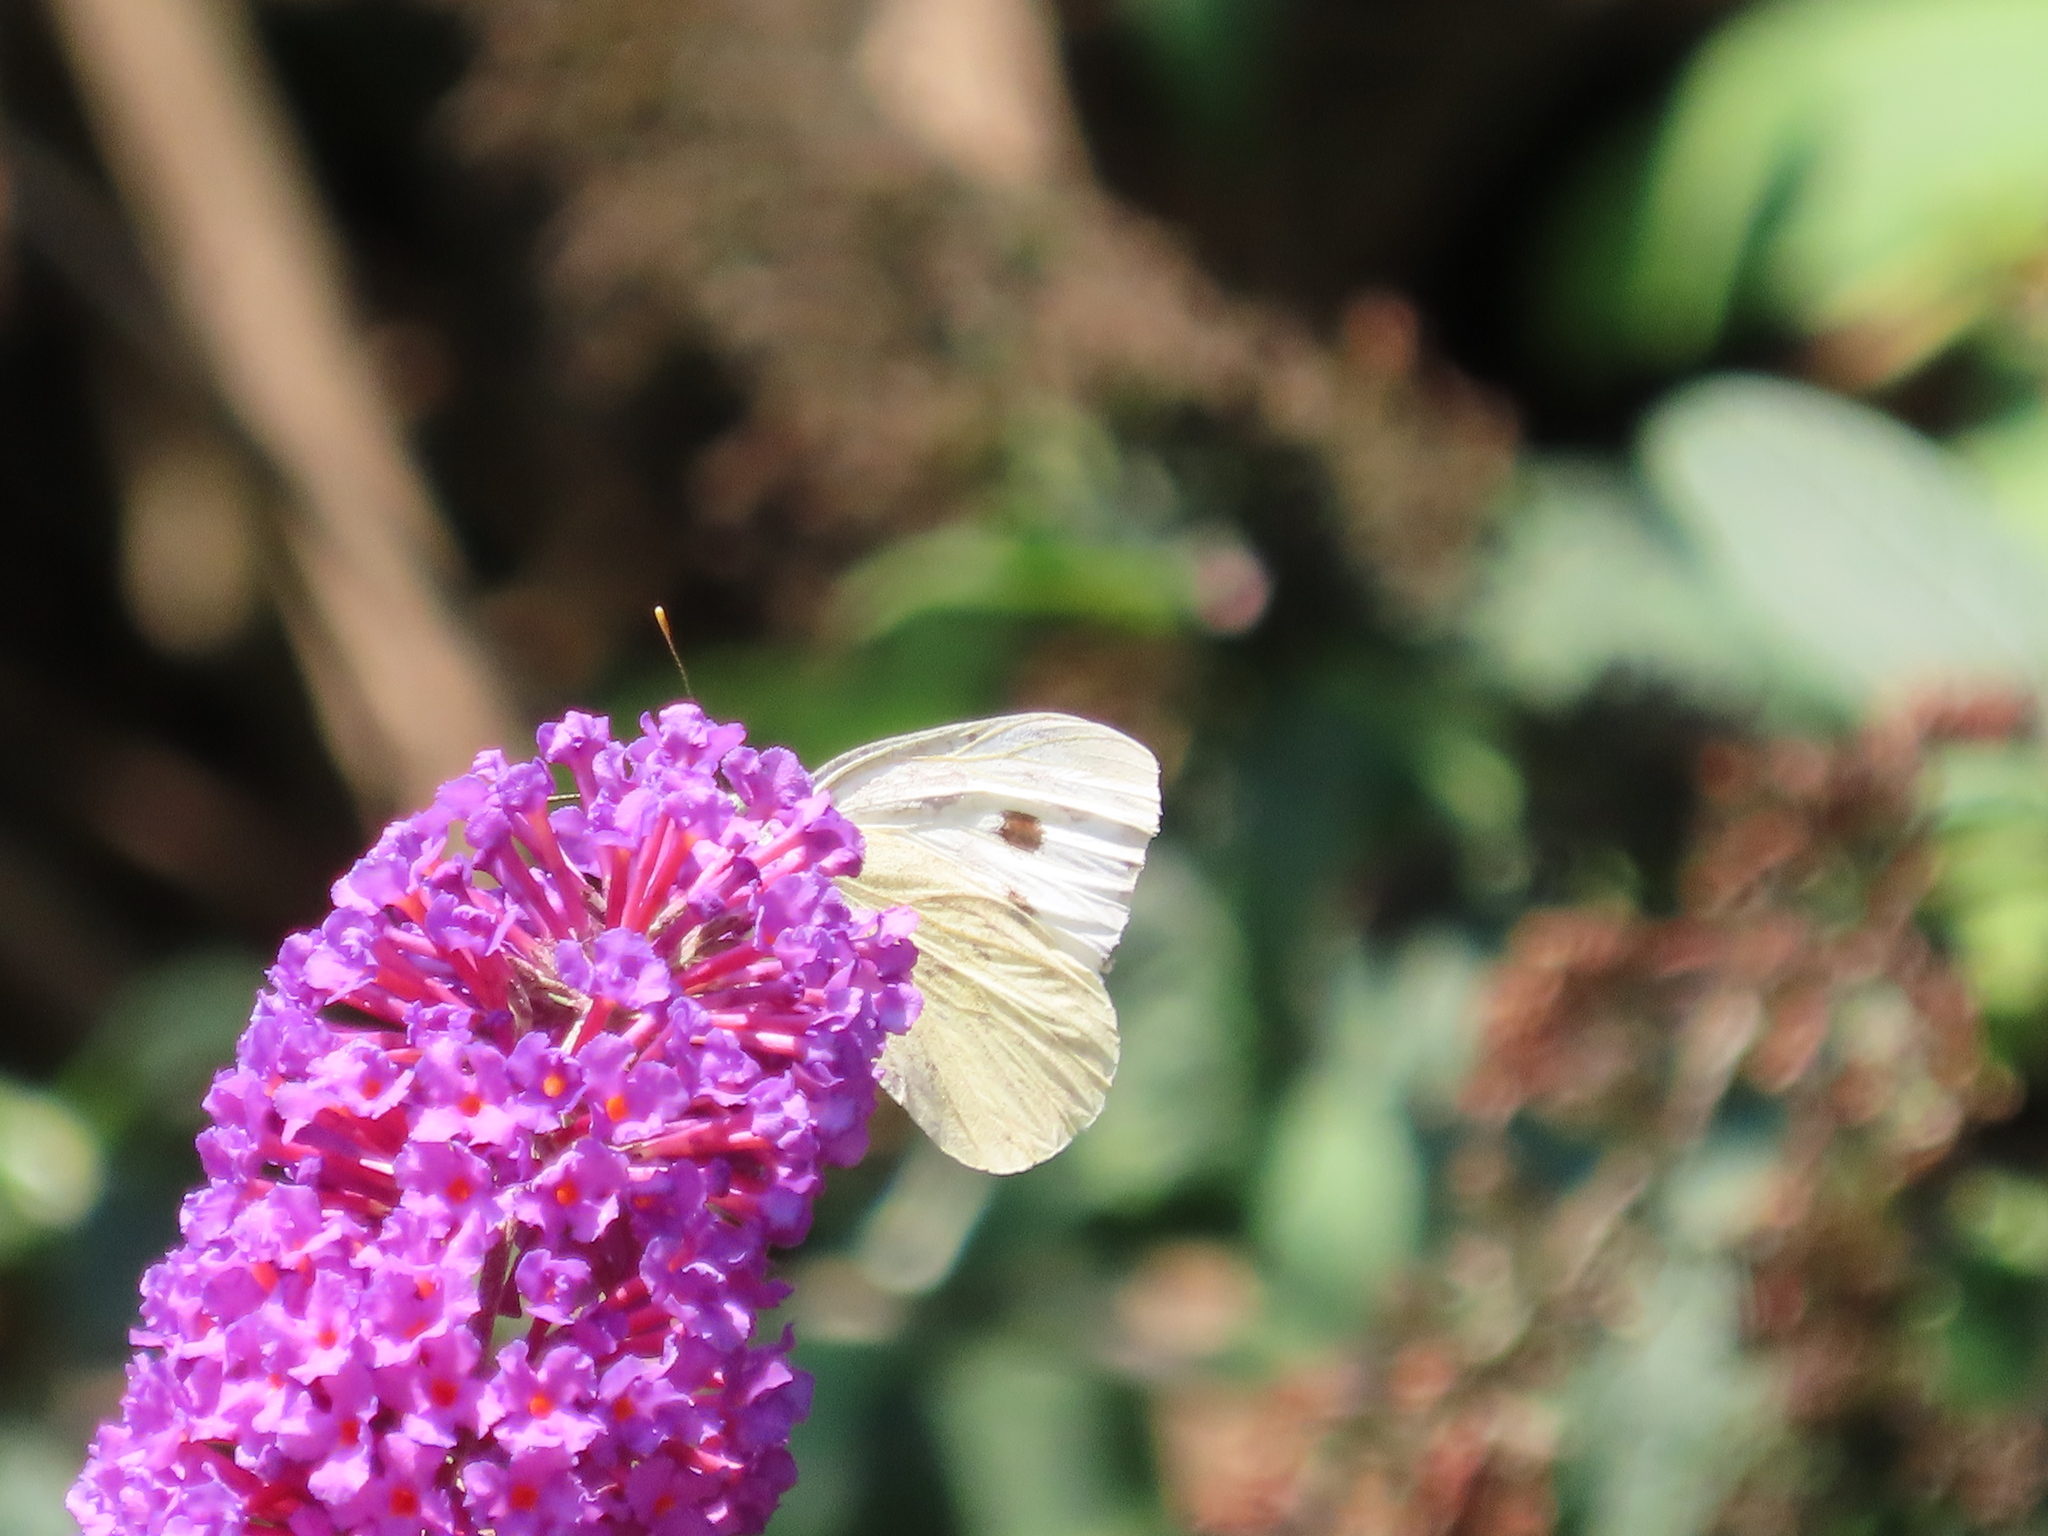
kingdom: Animalia
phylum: Arthropoda
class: Insecta
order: Lepidoptera
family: Pieridae
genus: Pieris
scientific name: Pieris rapae
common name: Small white
